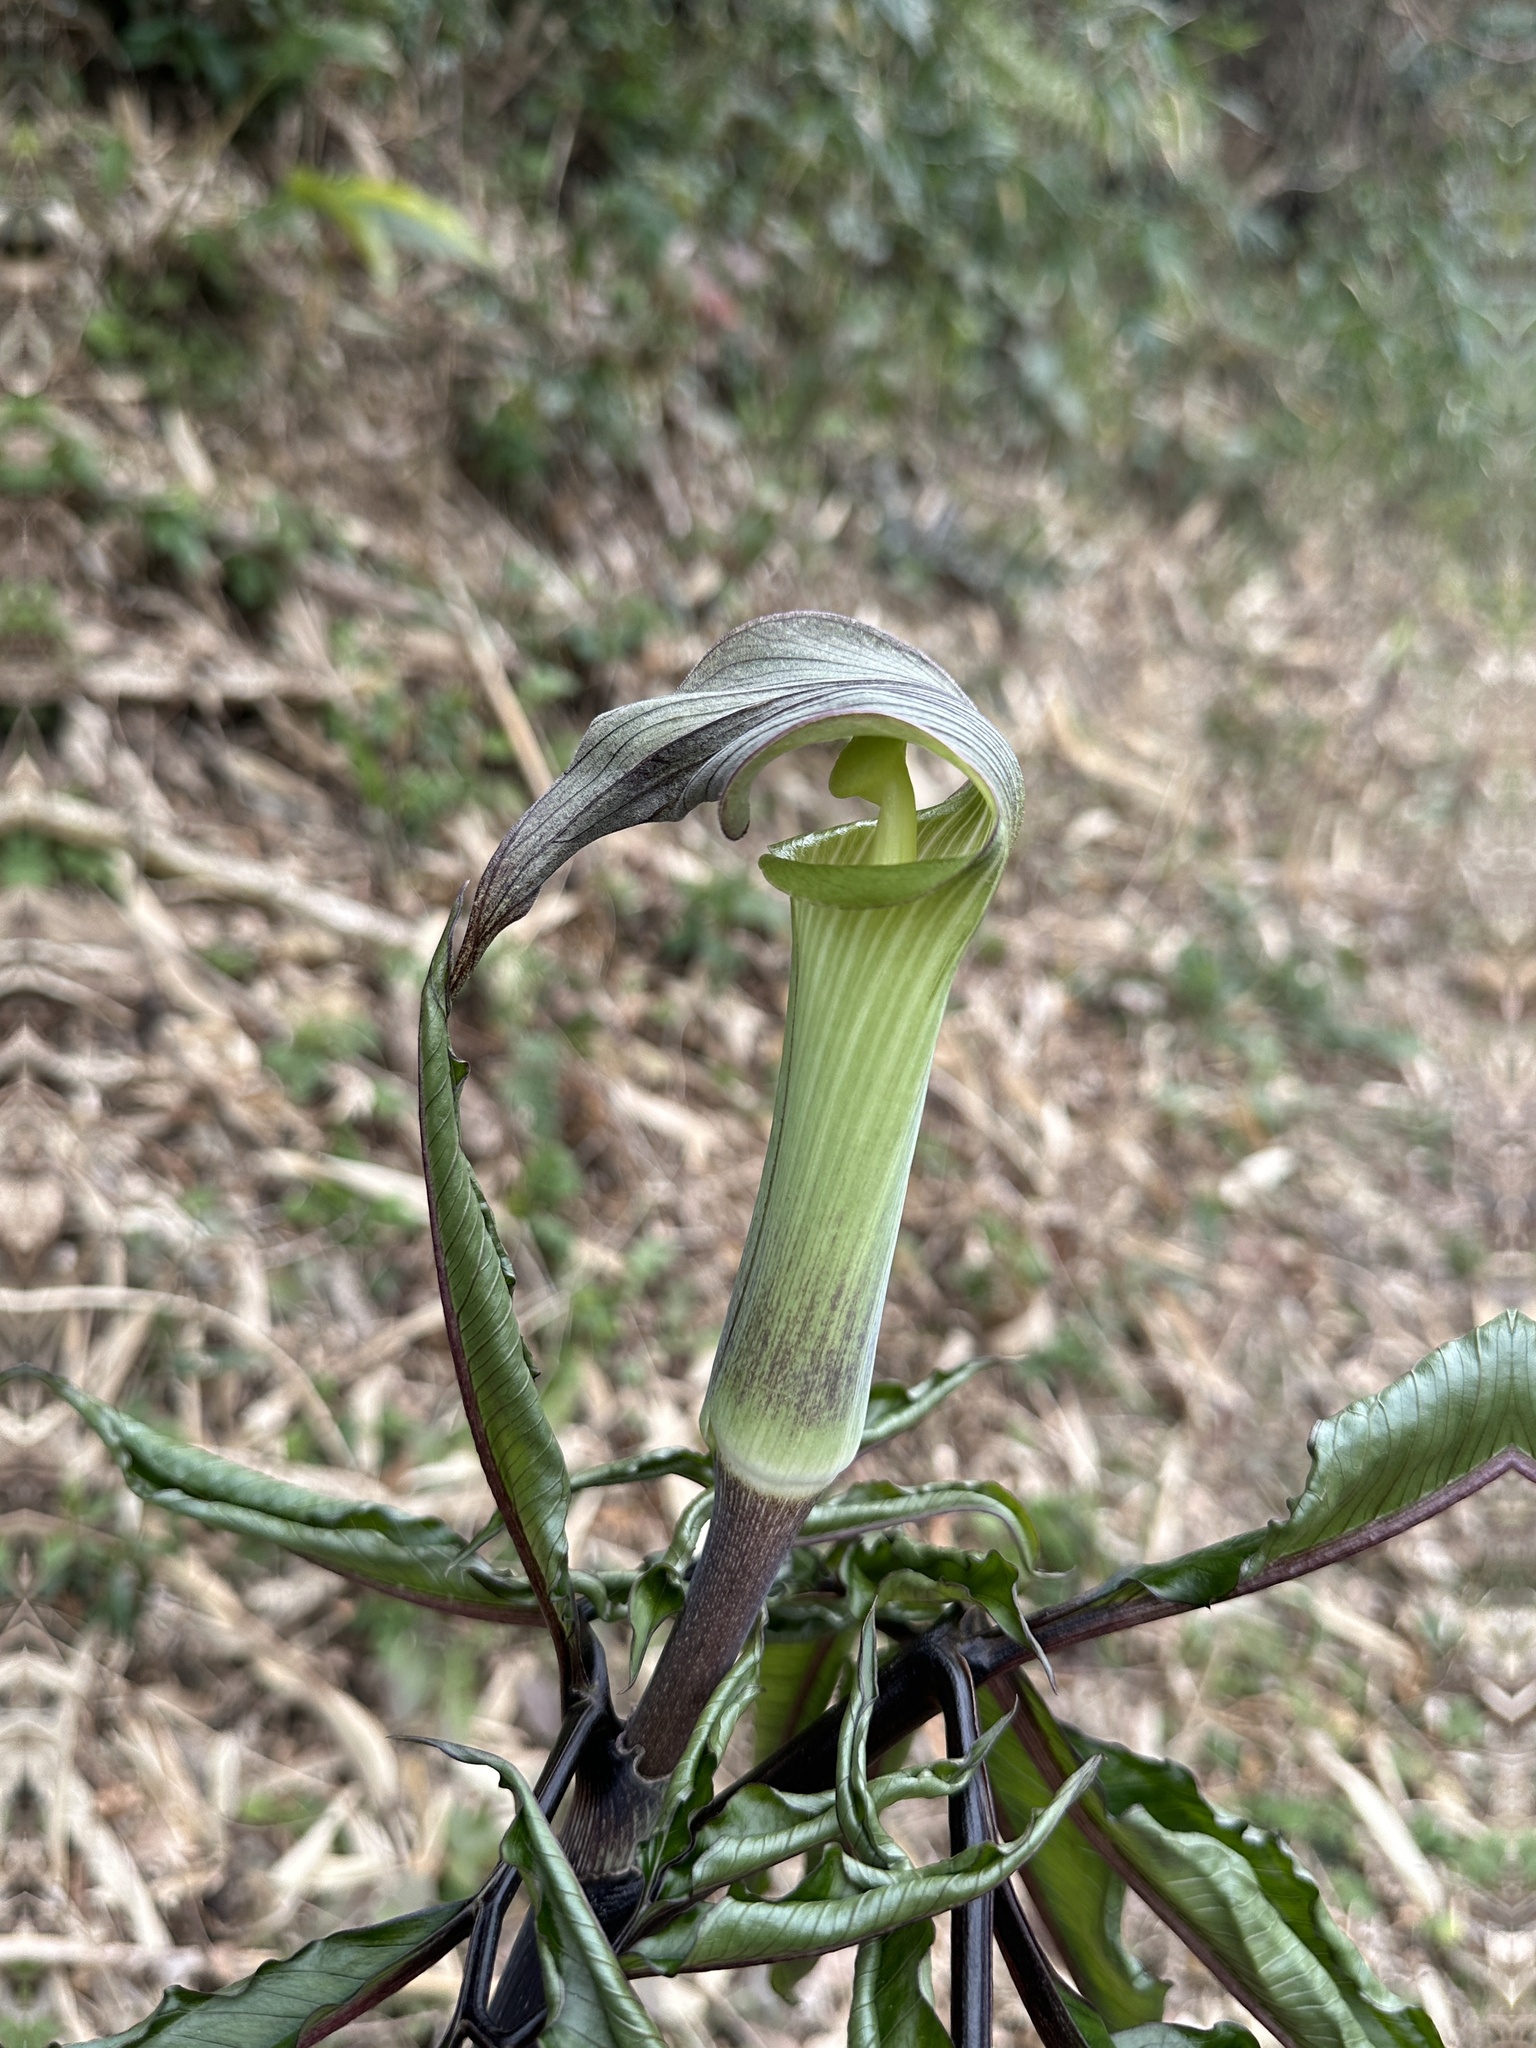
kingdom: Plantae
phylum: Tracheophyta
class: Liliopsida
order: Alismatales
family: Araceae
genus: Arisaema
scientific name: Arisaema yamatense
